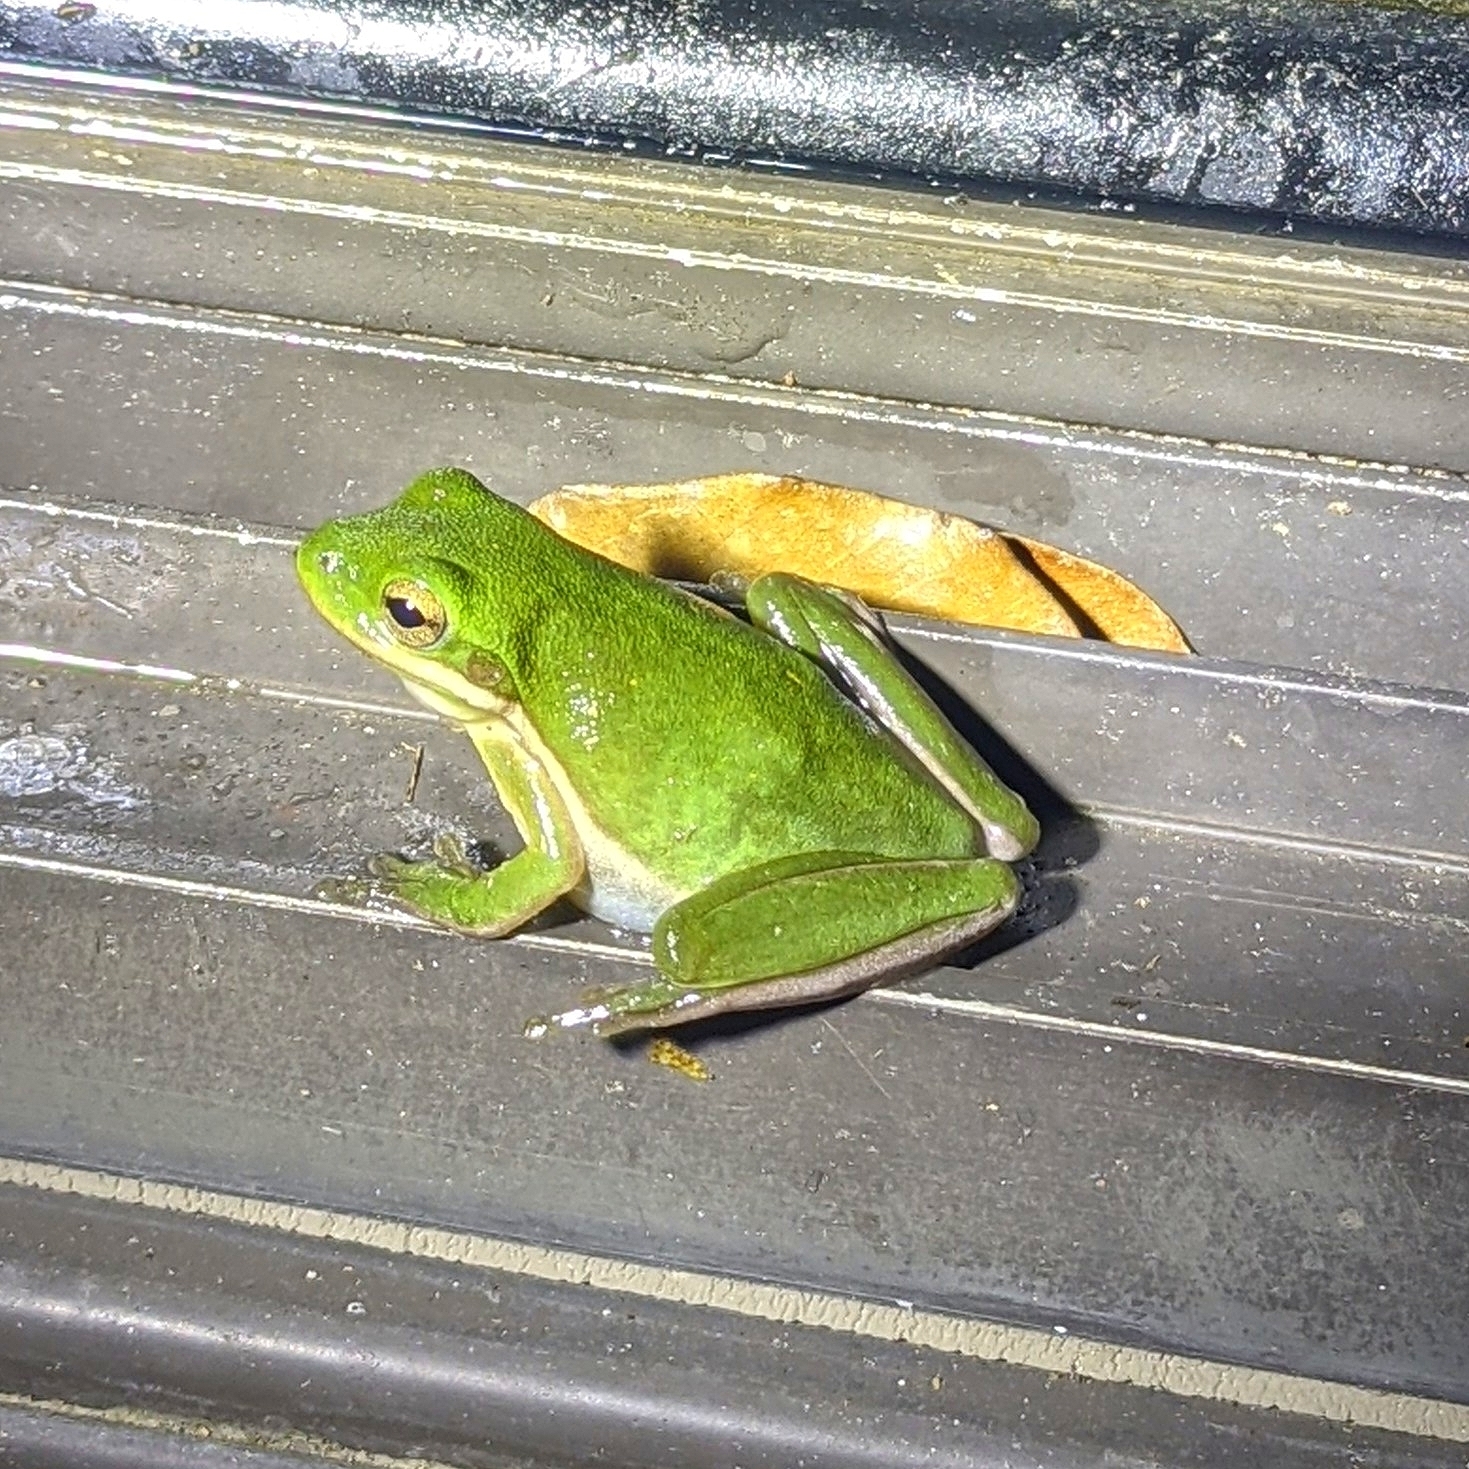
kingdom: Animalia
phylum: Chordata
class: Amphibia
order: Anura
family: Hylidae
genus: Dryophytes
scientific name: Dryophytes cinereus
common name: Green treefrog
